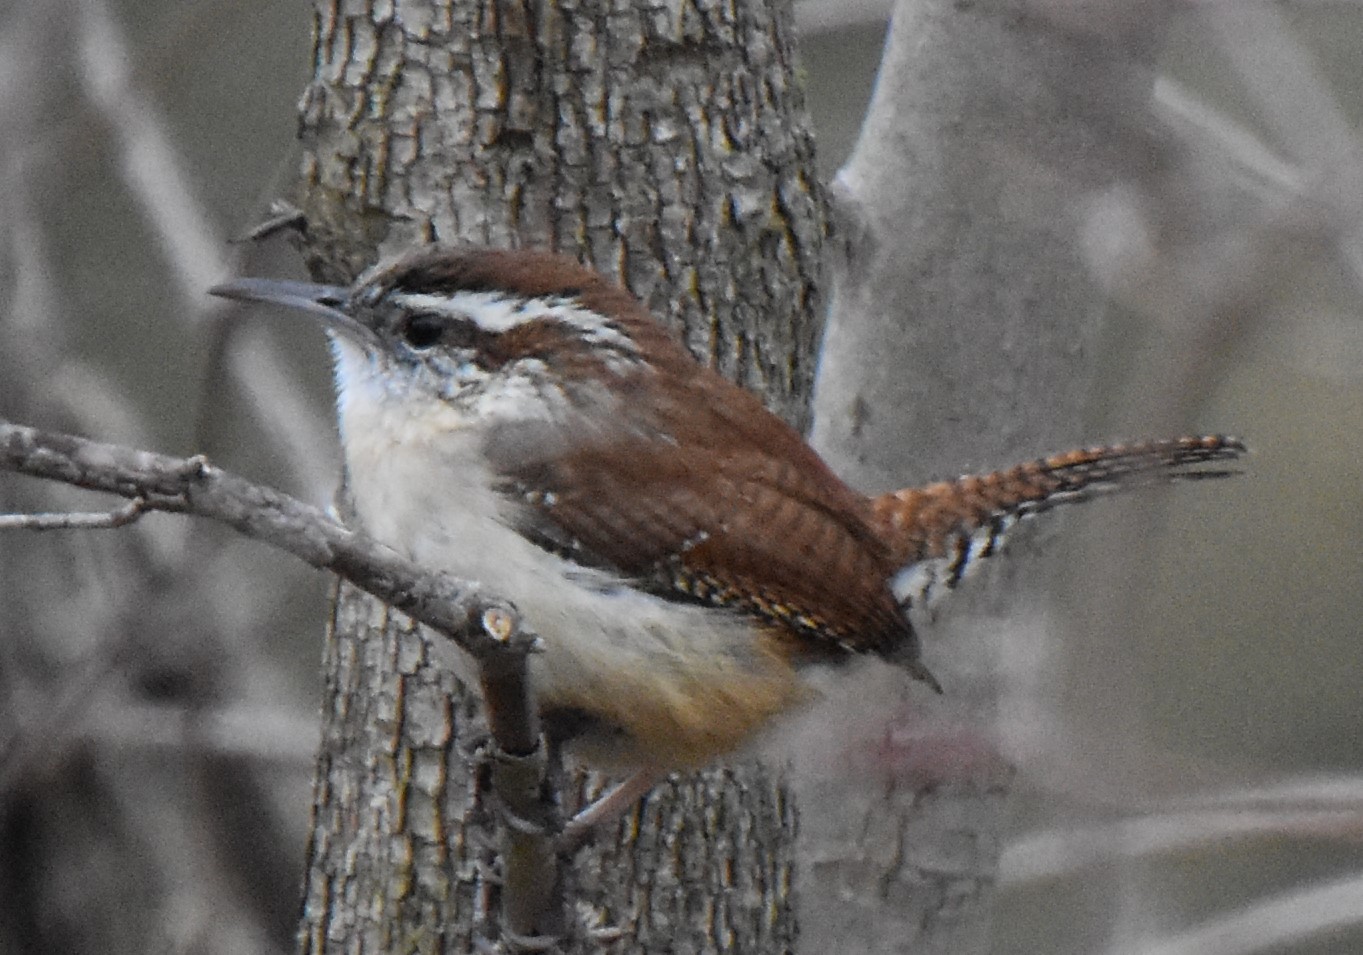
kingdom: Animalia
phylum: Chordata
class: Aves
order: Passeriformes
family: Troglodytidae
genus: Thryothorus
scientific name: Thryothorus ludovicianus
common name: Carolina wren
